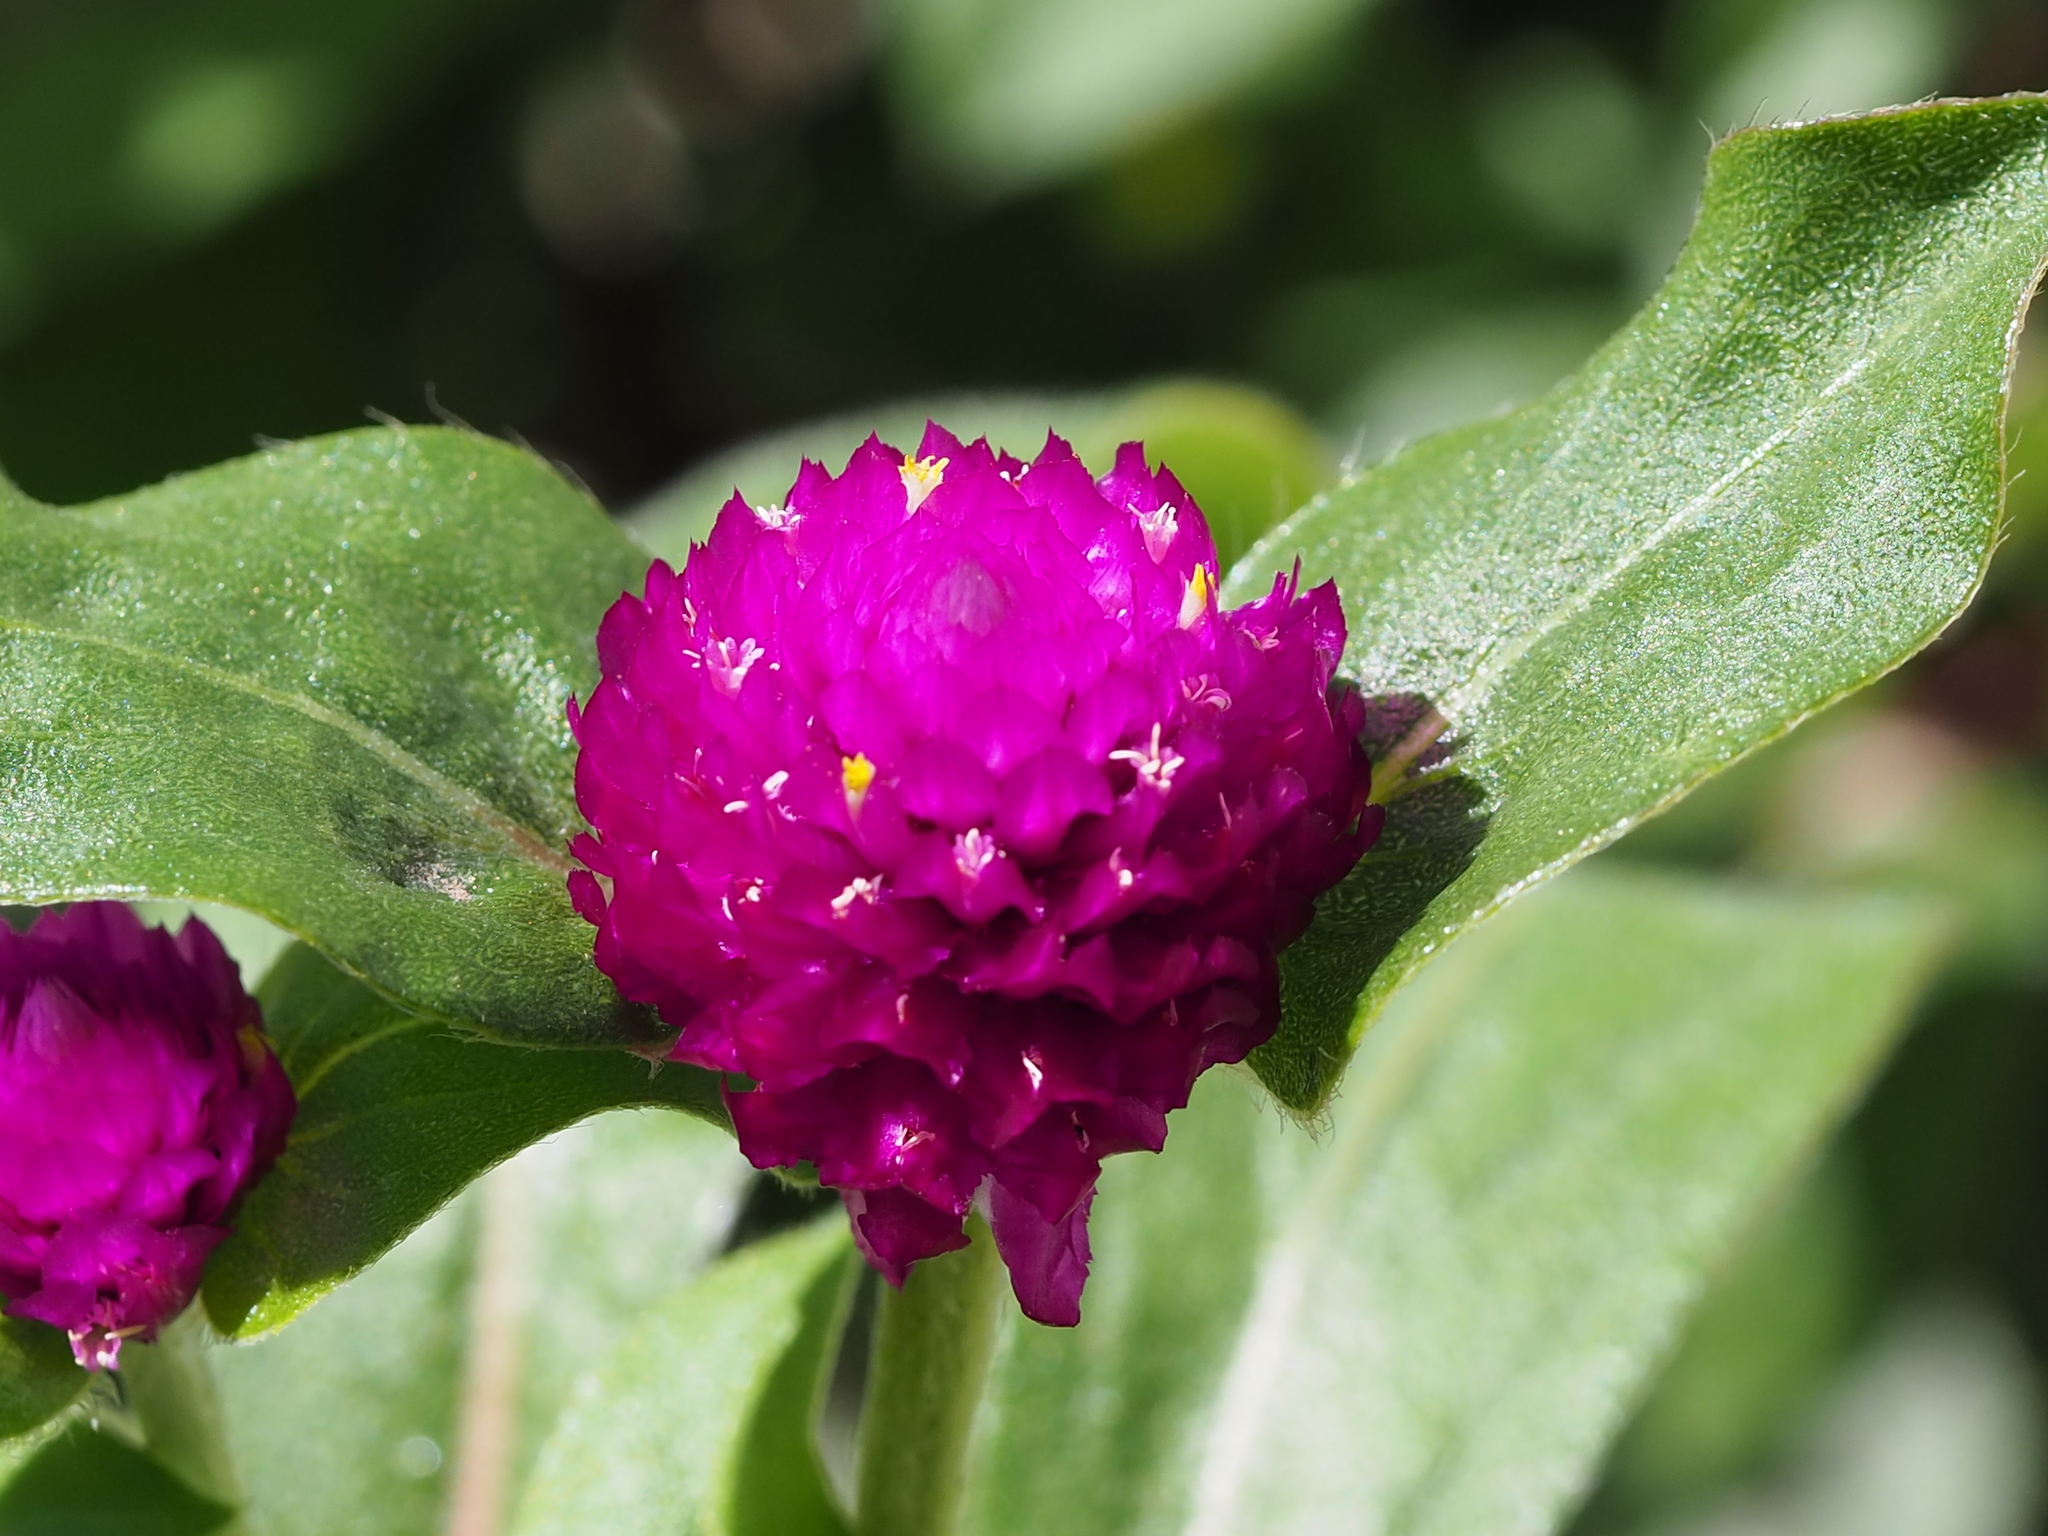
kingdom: Plantae
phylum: Tracheophyta
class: Magnoliopsida
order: Caryophyllales
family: Amaranthaceae
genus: Gomphrena
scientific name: Gomphrena globosa
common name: Common globe amaranth
